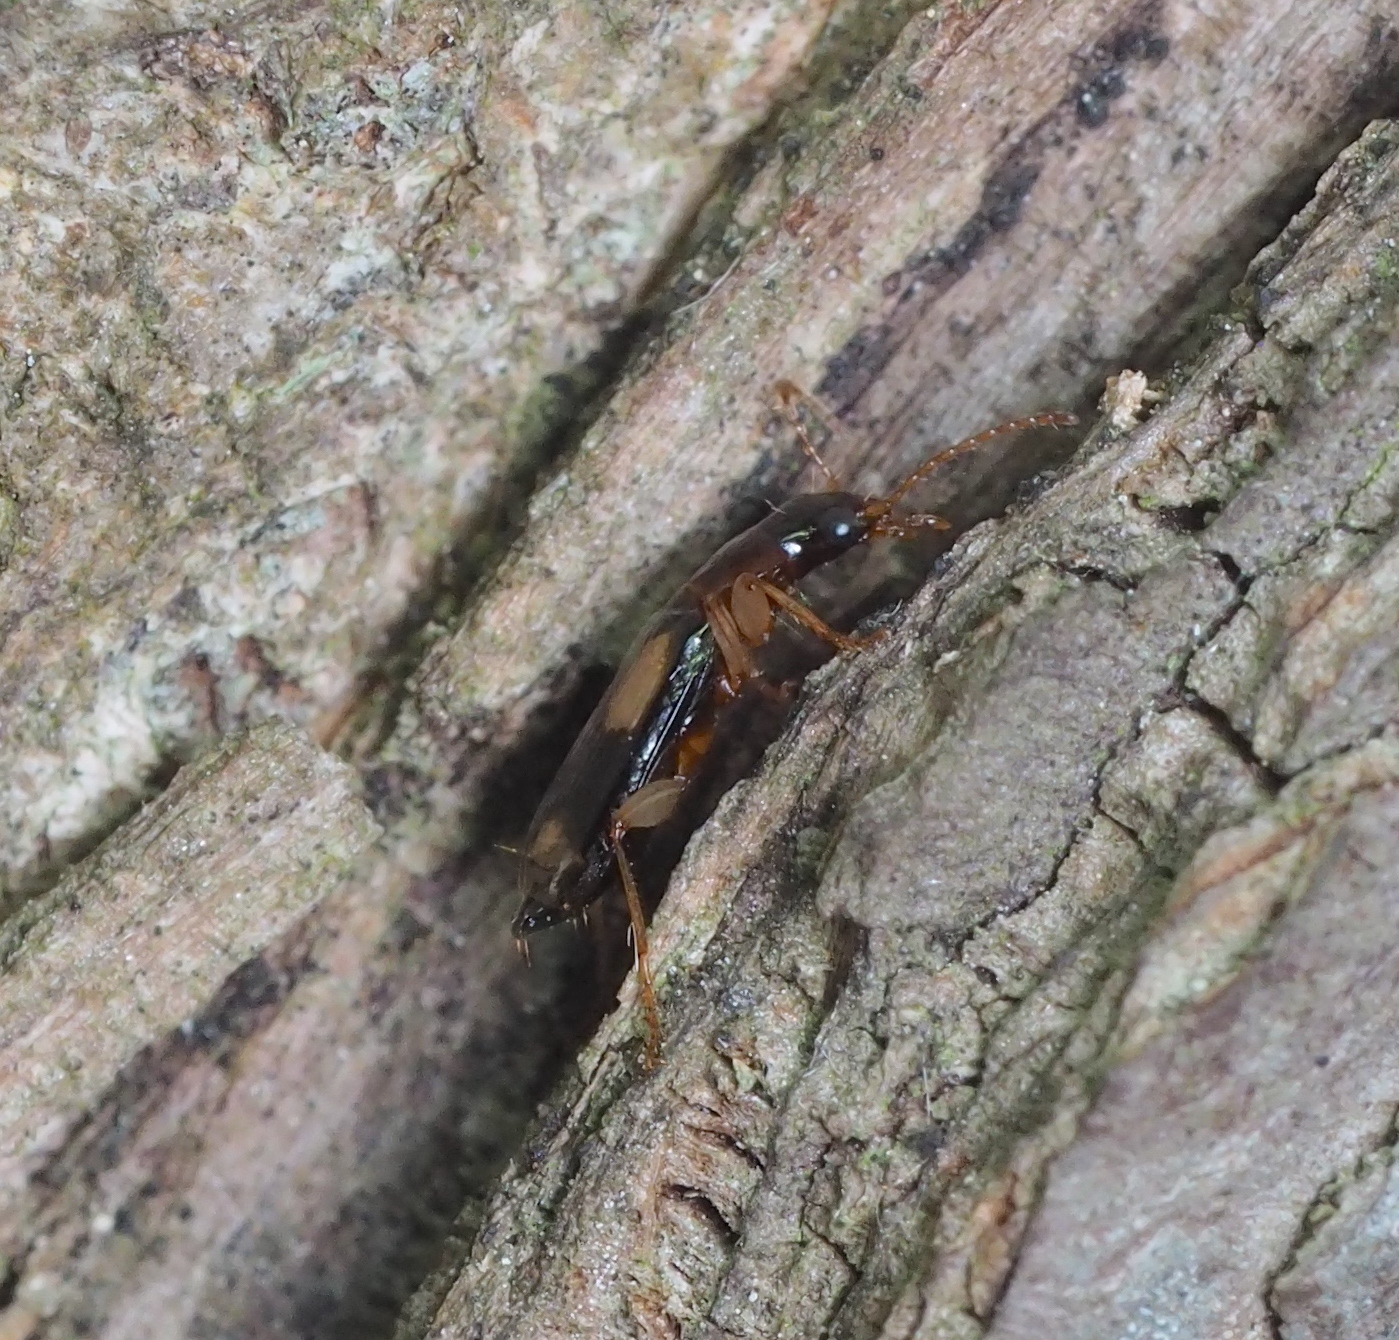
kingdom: Animalia
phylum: Arthropoda
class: Insecta
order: Coleoptera
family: Carabidae
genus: Dromius
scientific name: Dromius quadrimaculatus
